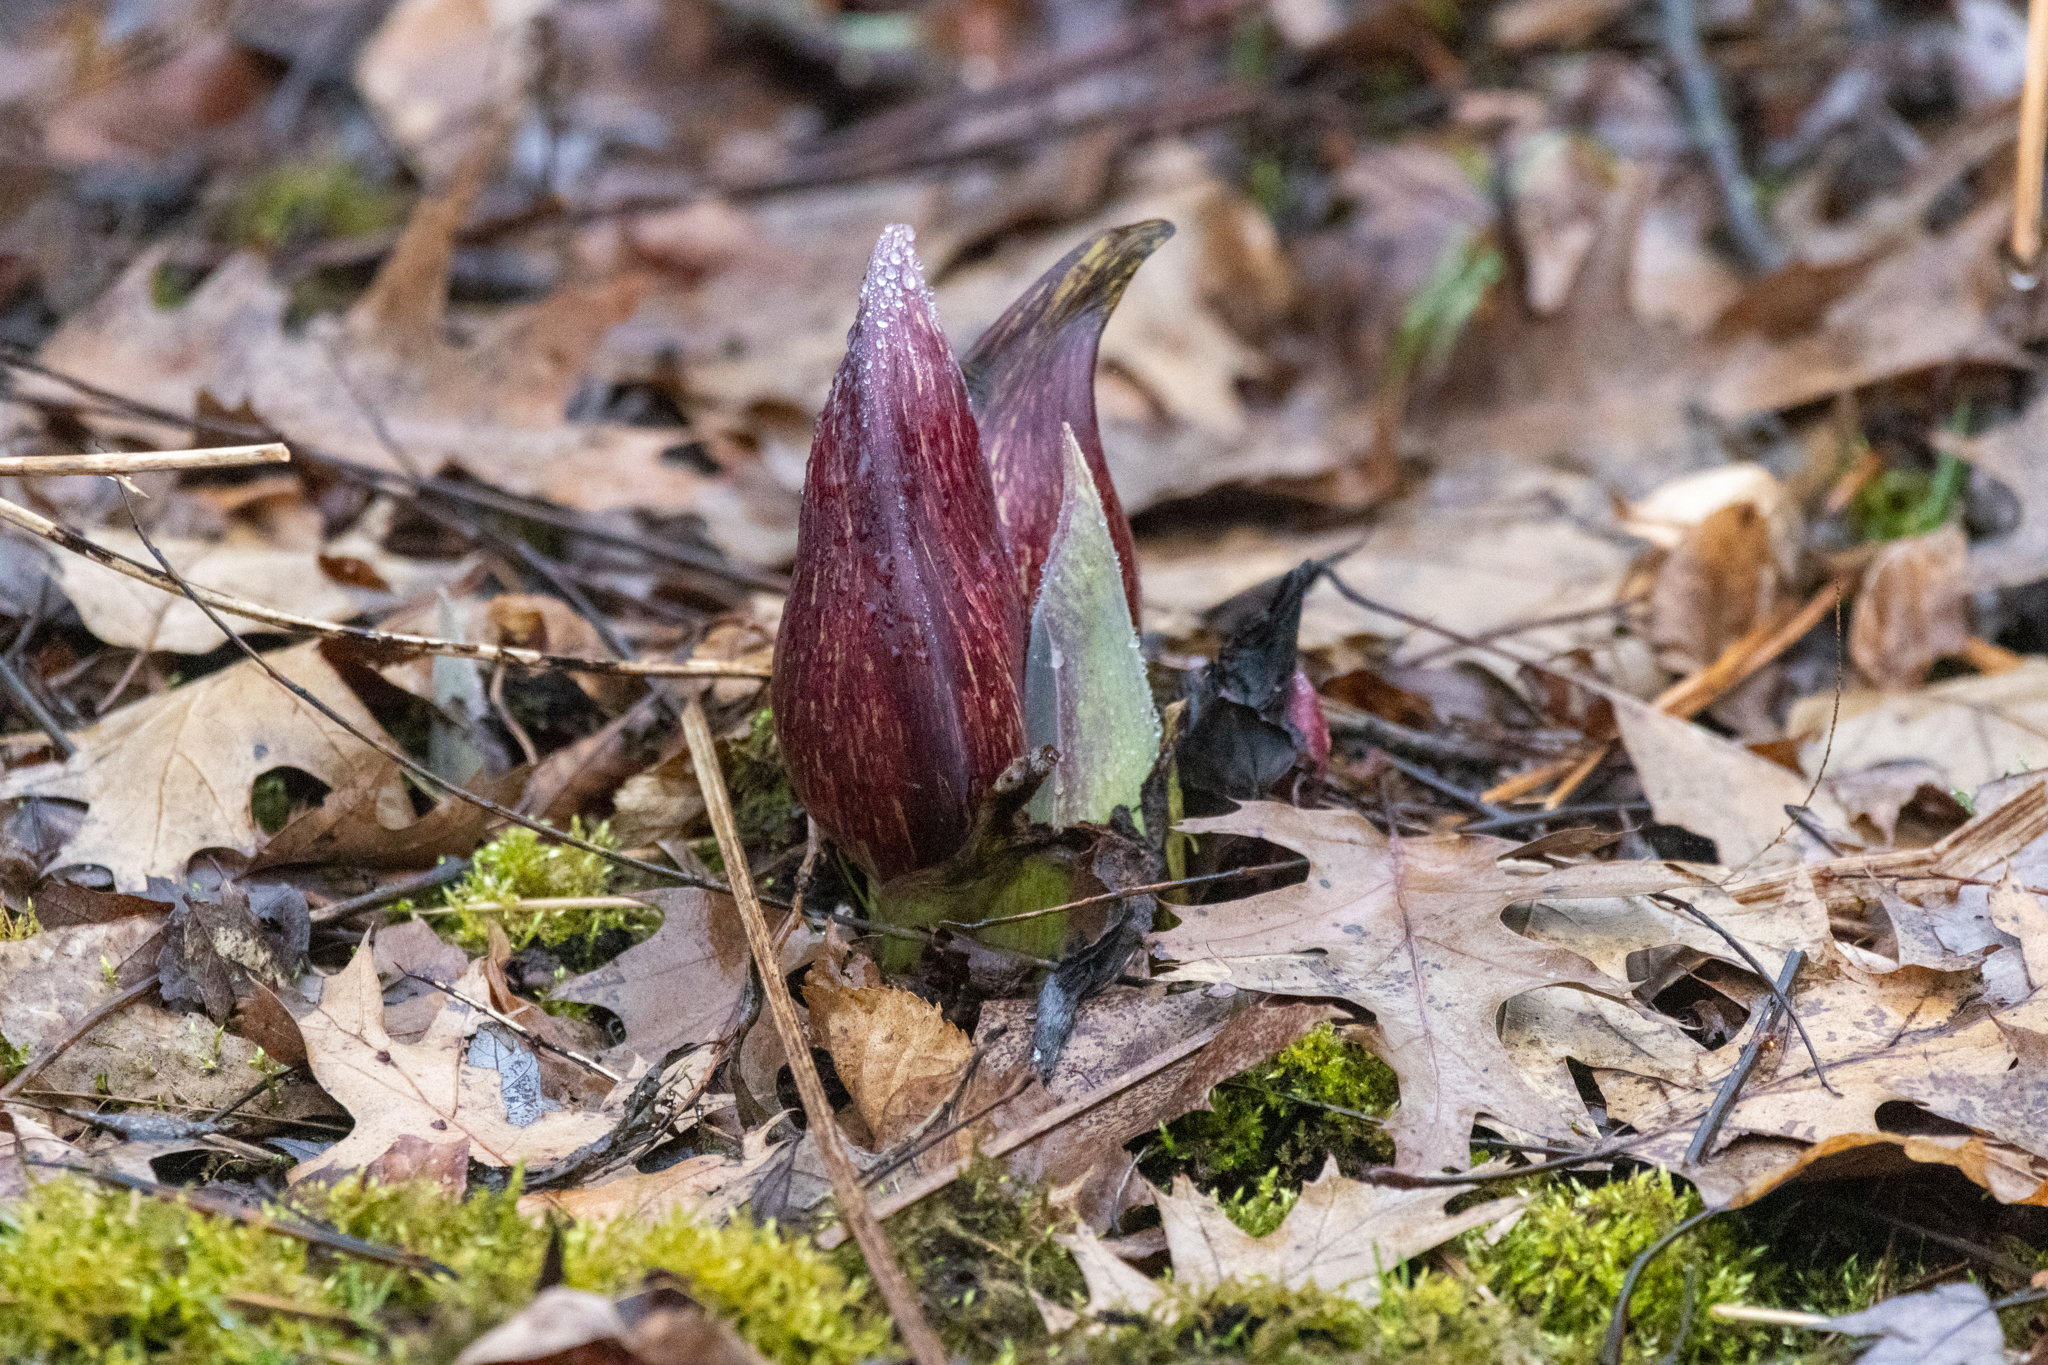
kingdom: Plantae
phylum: Tracheophyta
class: Liliopsida
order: Alismatales
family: Araceae
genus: Symplocarpus
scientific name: Symplocarpus foetidus
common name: Eastern skunk cabbage
